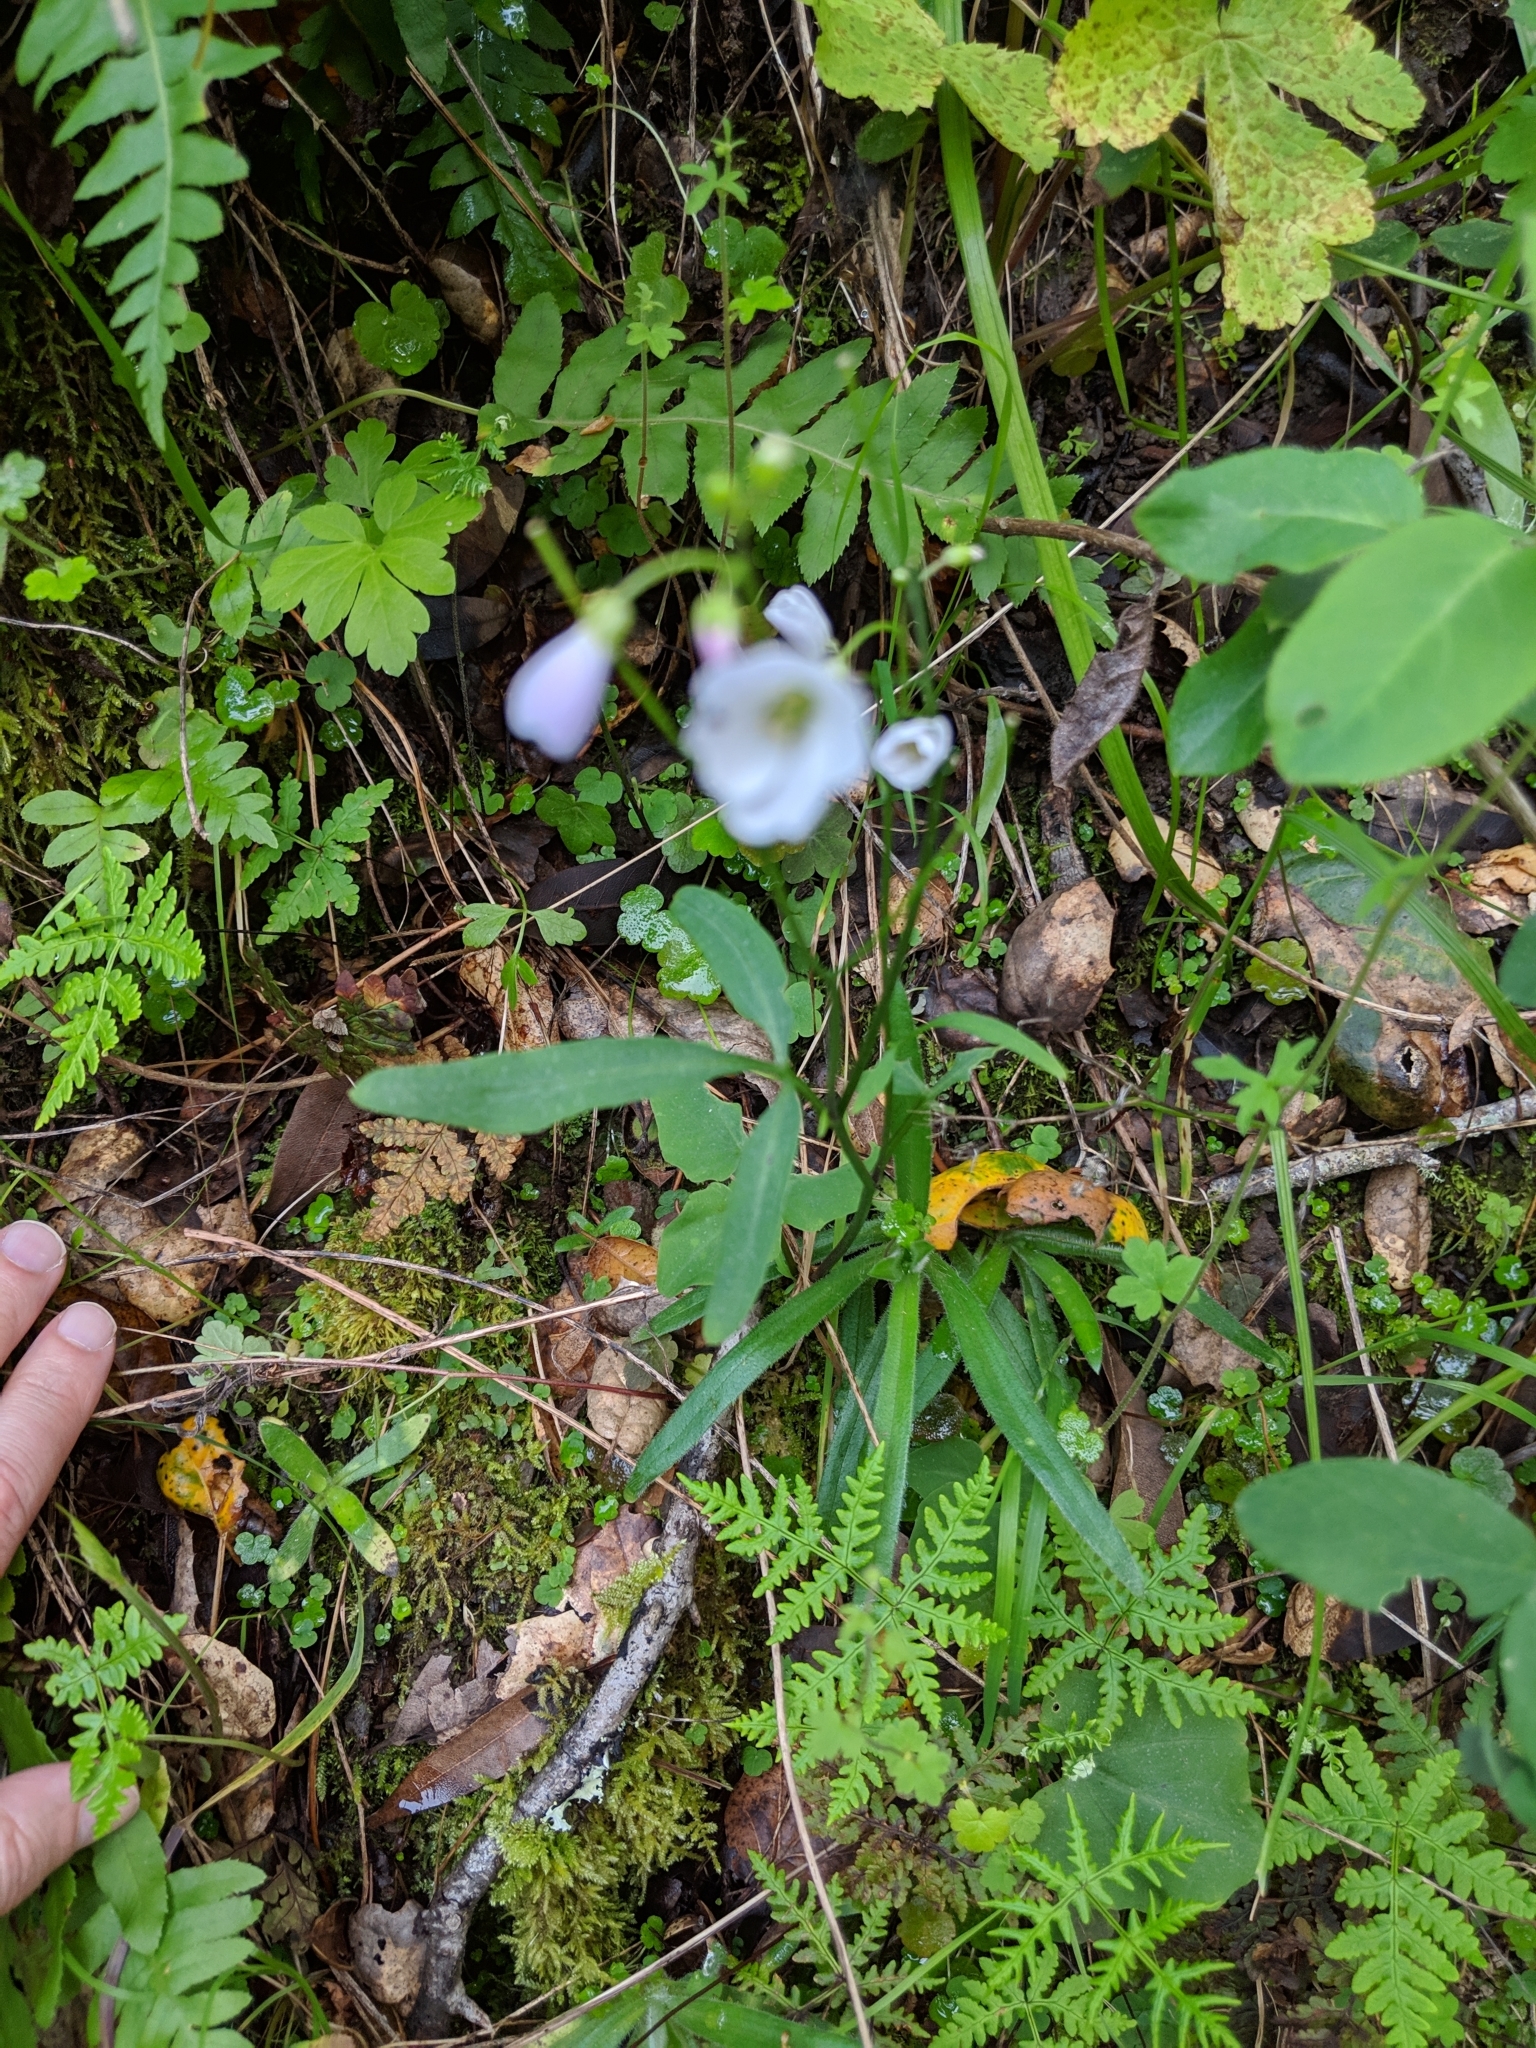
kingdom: Plantae
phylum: Tracheophyta
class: Magnoliopsida
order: Brassicales
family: Brassicaceae
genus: Cardamine
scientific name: Cardamine californica
